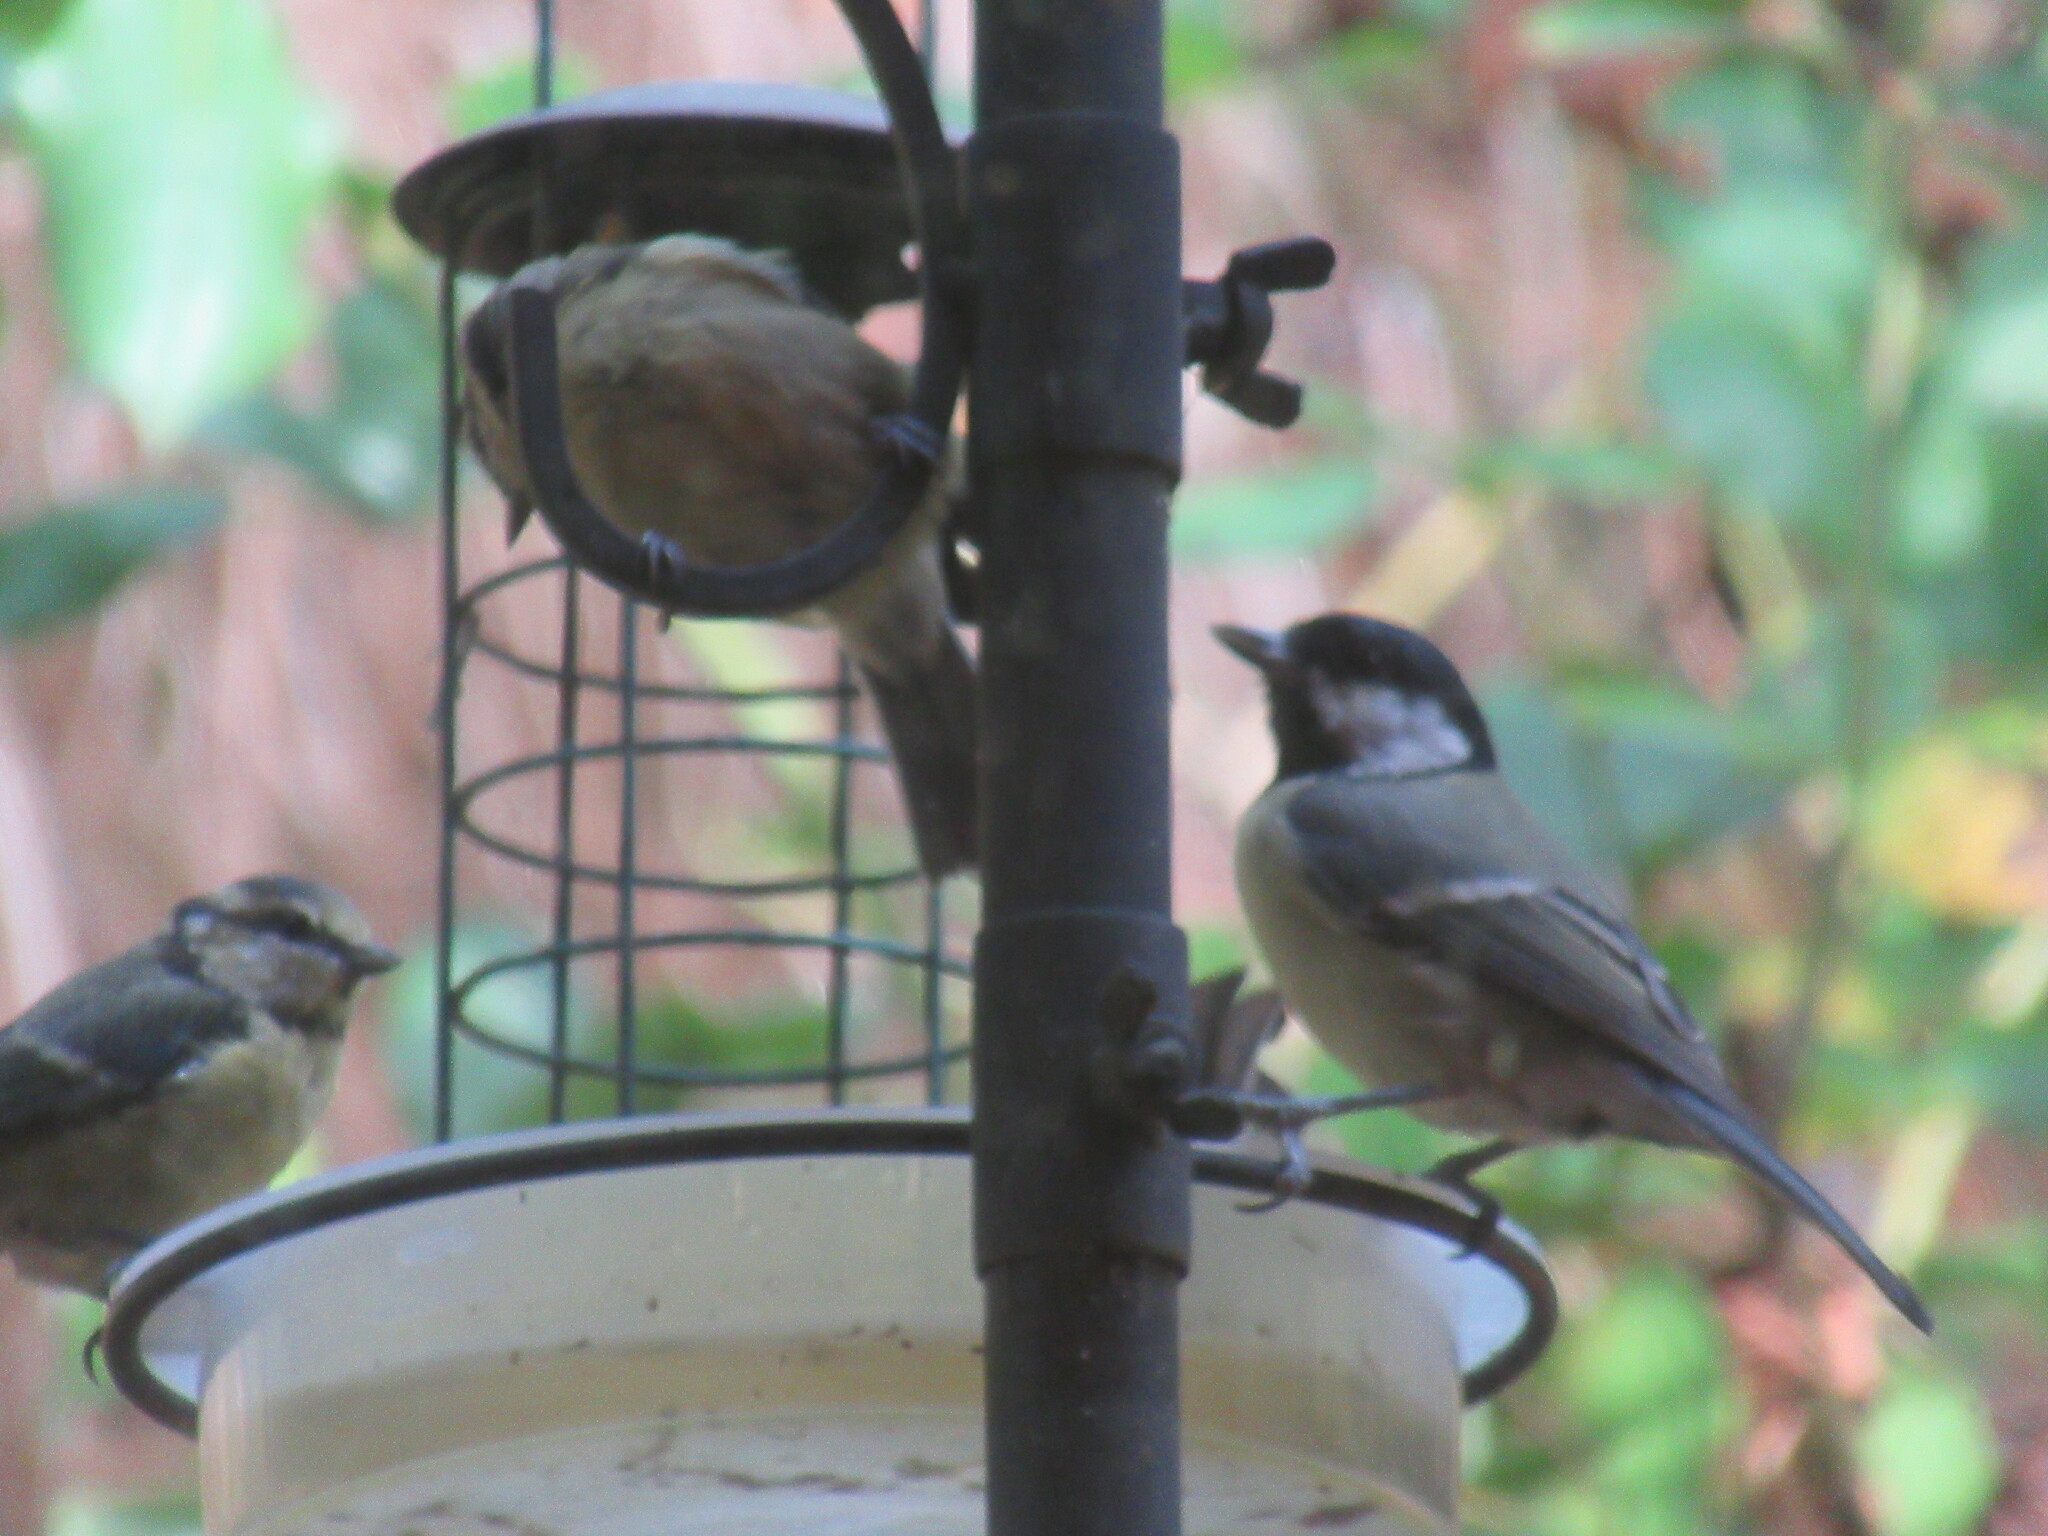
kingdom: Animalia
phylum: Chordata
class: Aves
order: Passeriformes
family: Paridae
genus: Parus
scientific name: Parus major
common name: Great tit
